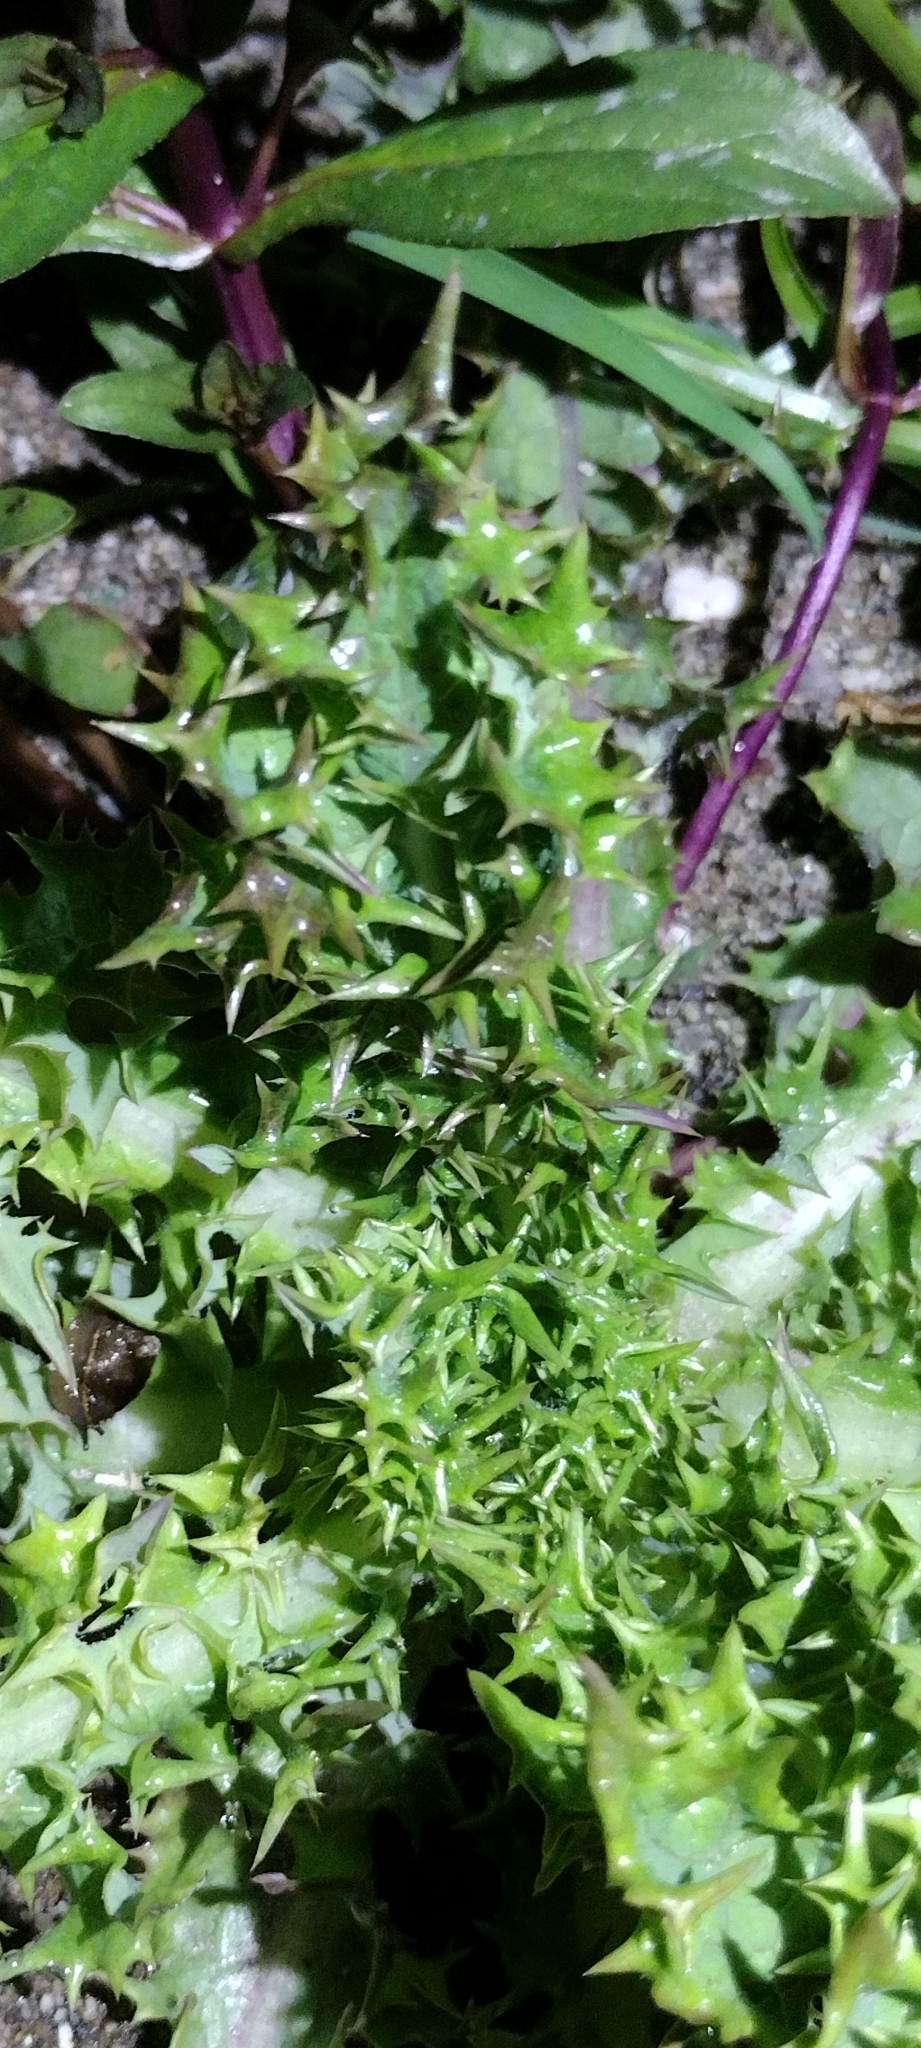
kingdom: Plantae
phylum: Tracheophyta
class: Magnoliopsida
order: Asterales
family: Asteraceae
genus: Sonchus
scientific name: Sonchus asper
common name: Prickly sow-thistle
